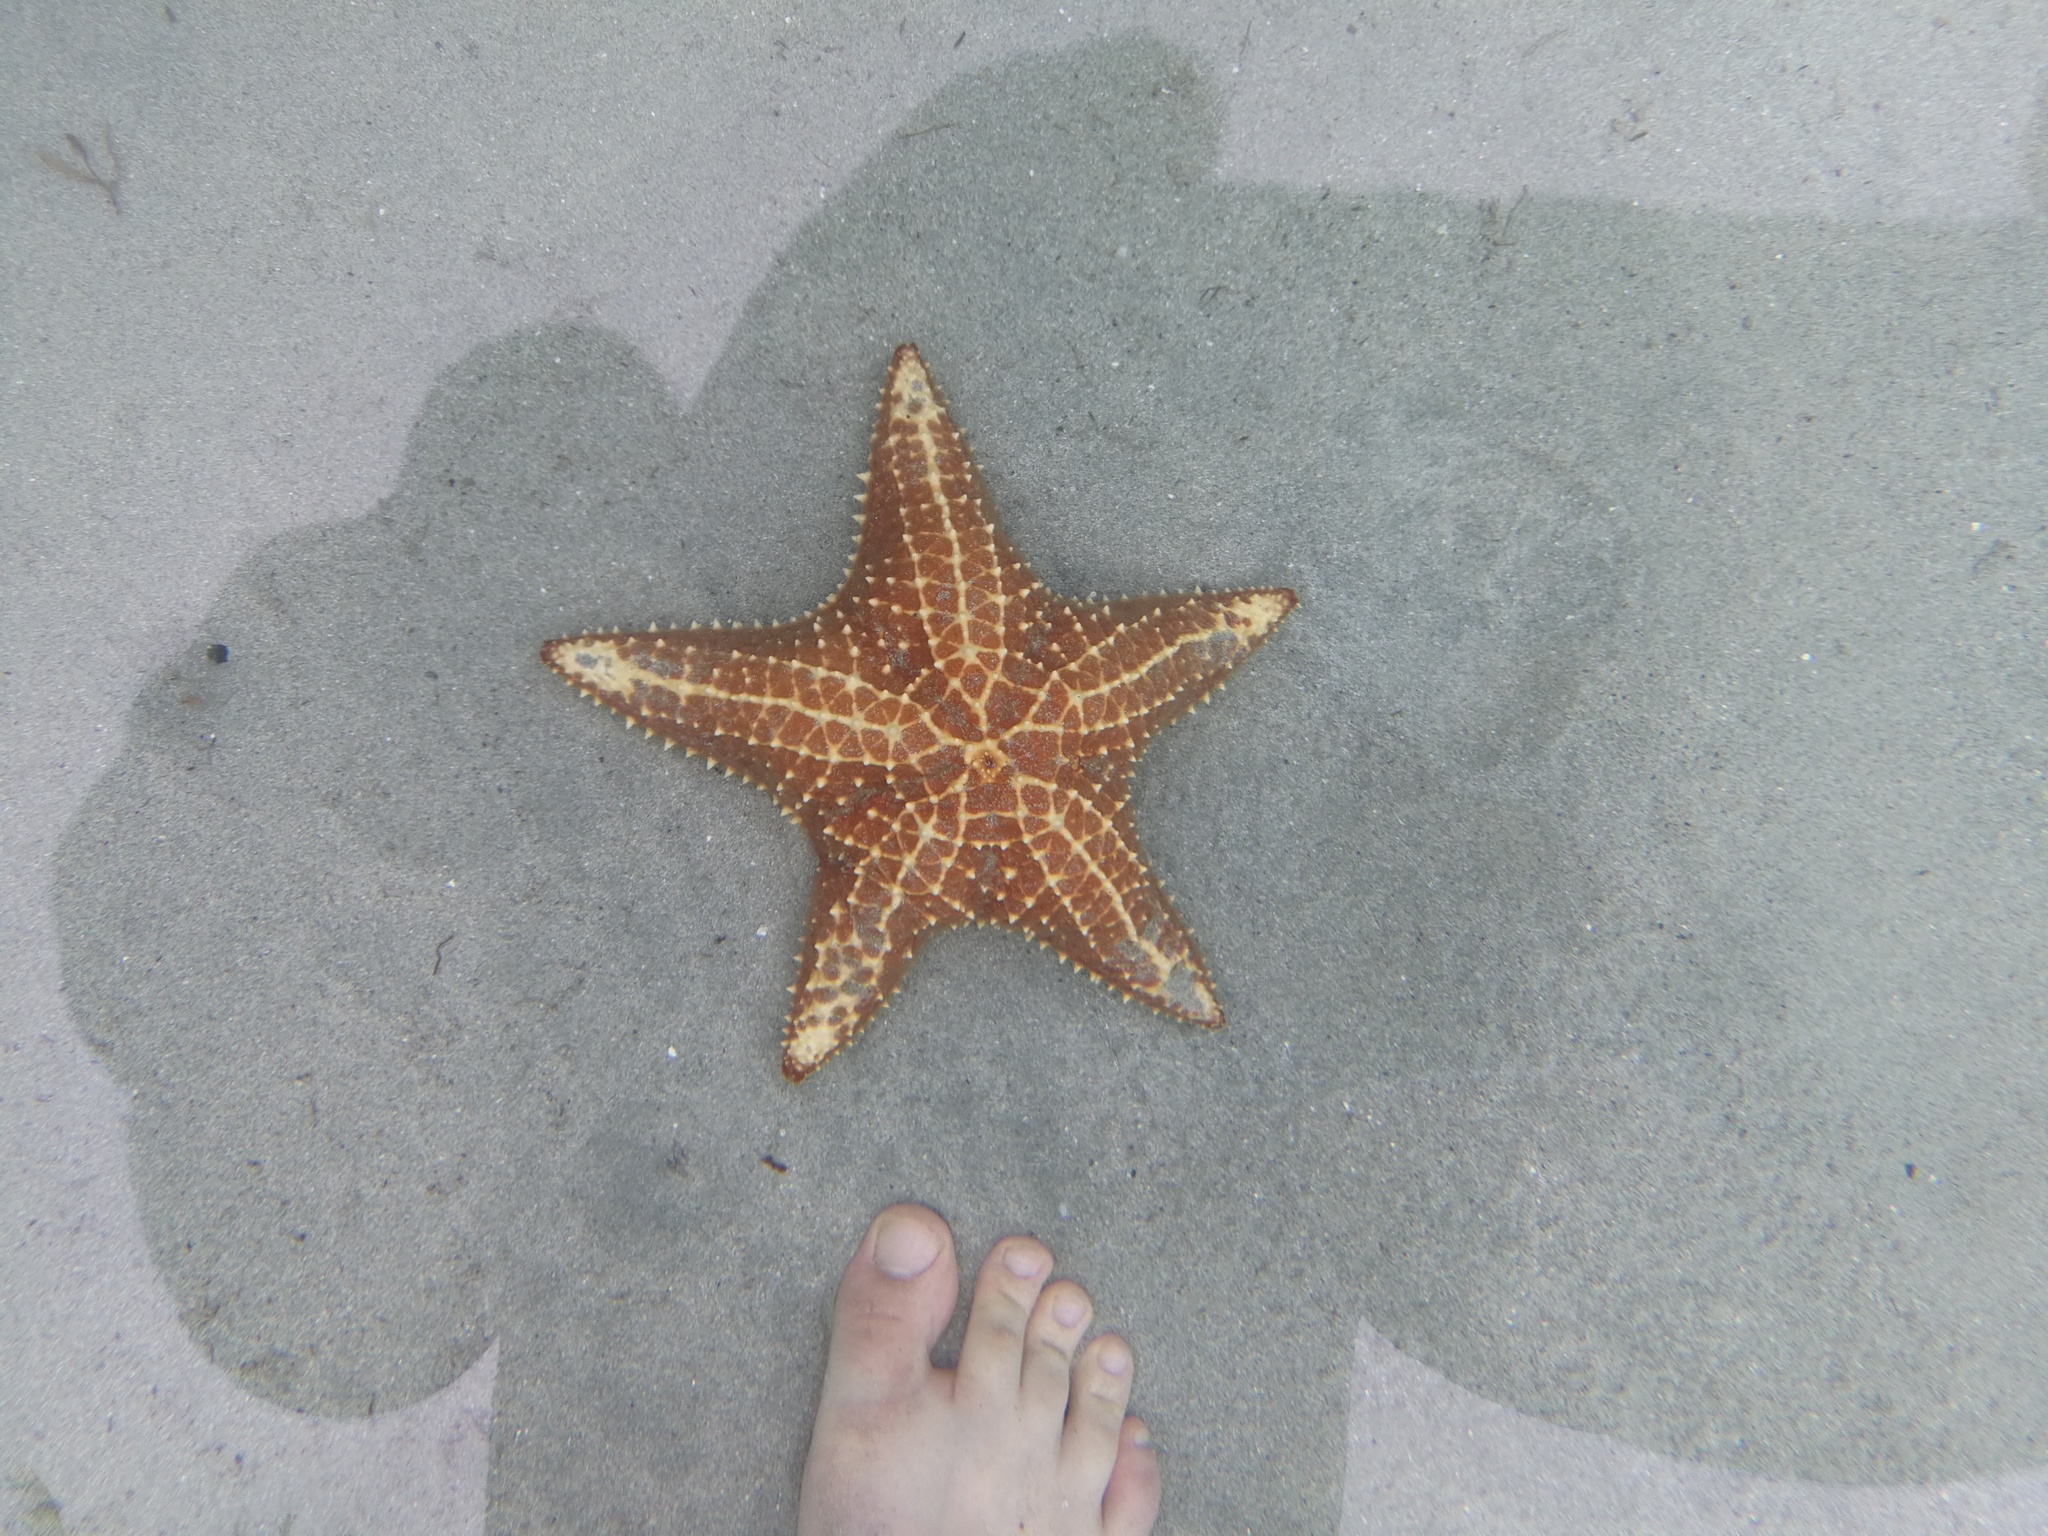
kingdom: Animalia
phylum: Echinodermata
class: Asteroidea
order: Valvatida
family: Oreasteridae
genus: Oreaster
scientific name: Oreaster reticulatus
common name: Cushion sea star
